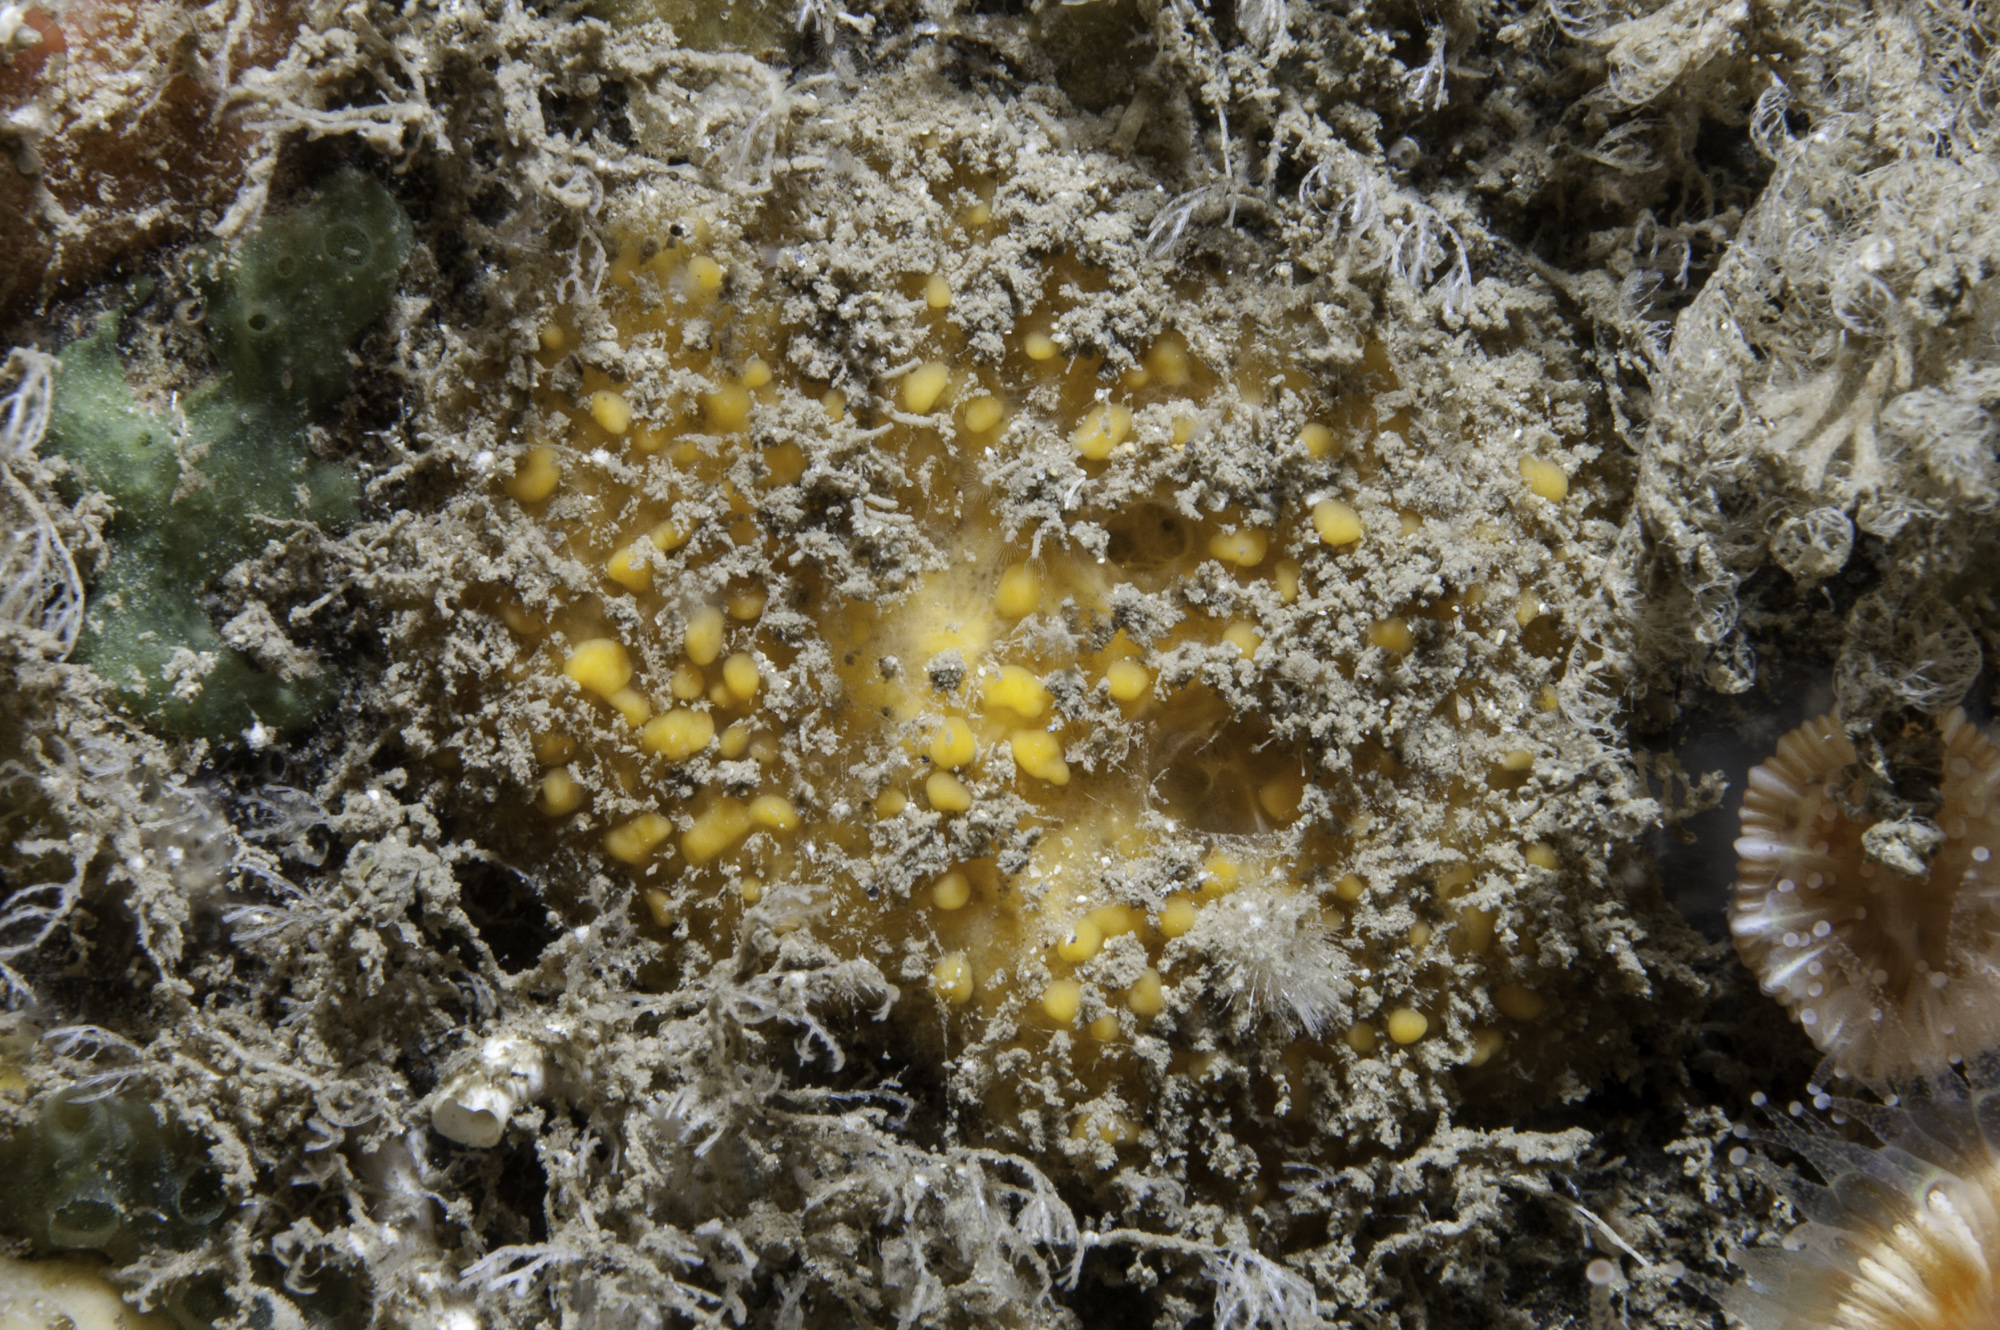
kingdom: Animalia
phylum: Porifera
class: Demospongiae
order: Axinellida
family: Stelligeridae
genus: Paratimea
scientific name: Paratimea aurantiaca
